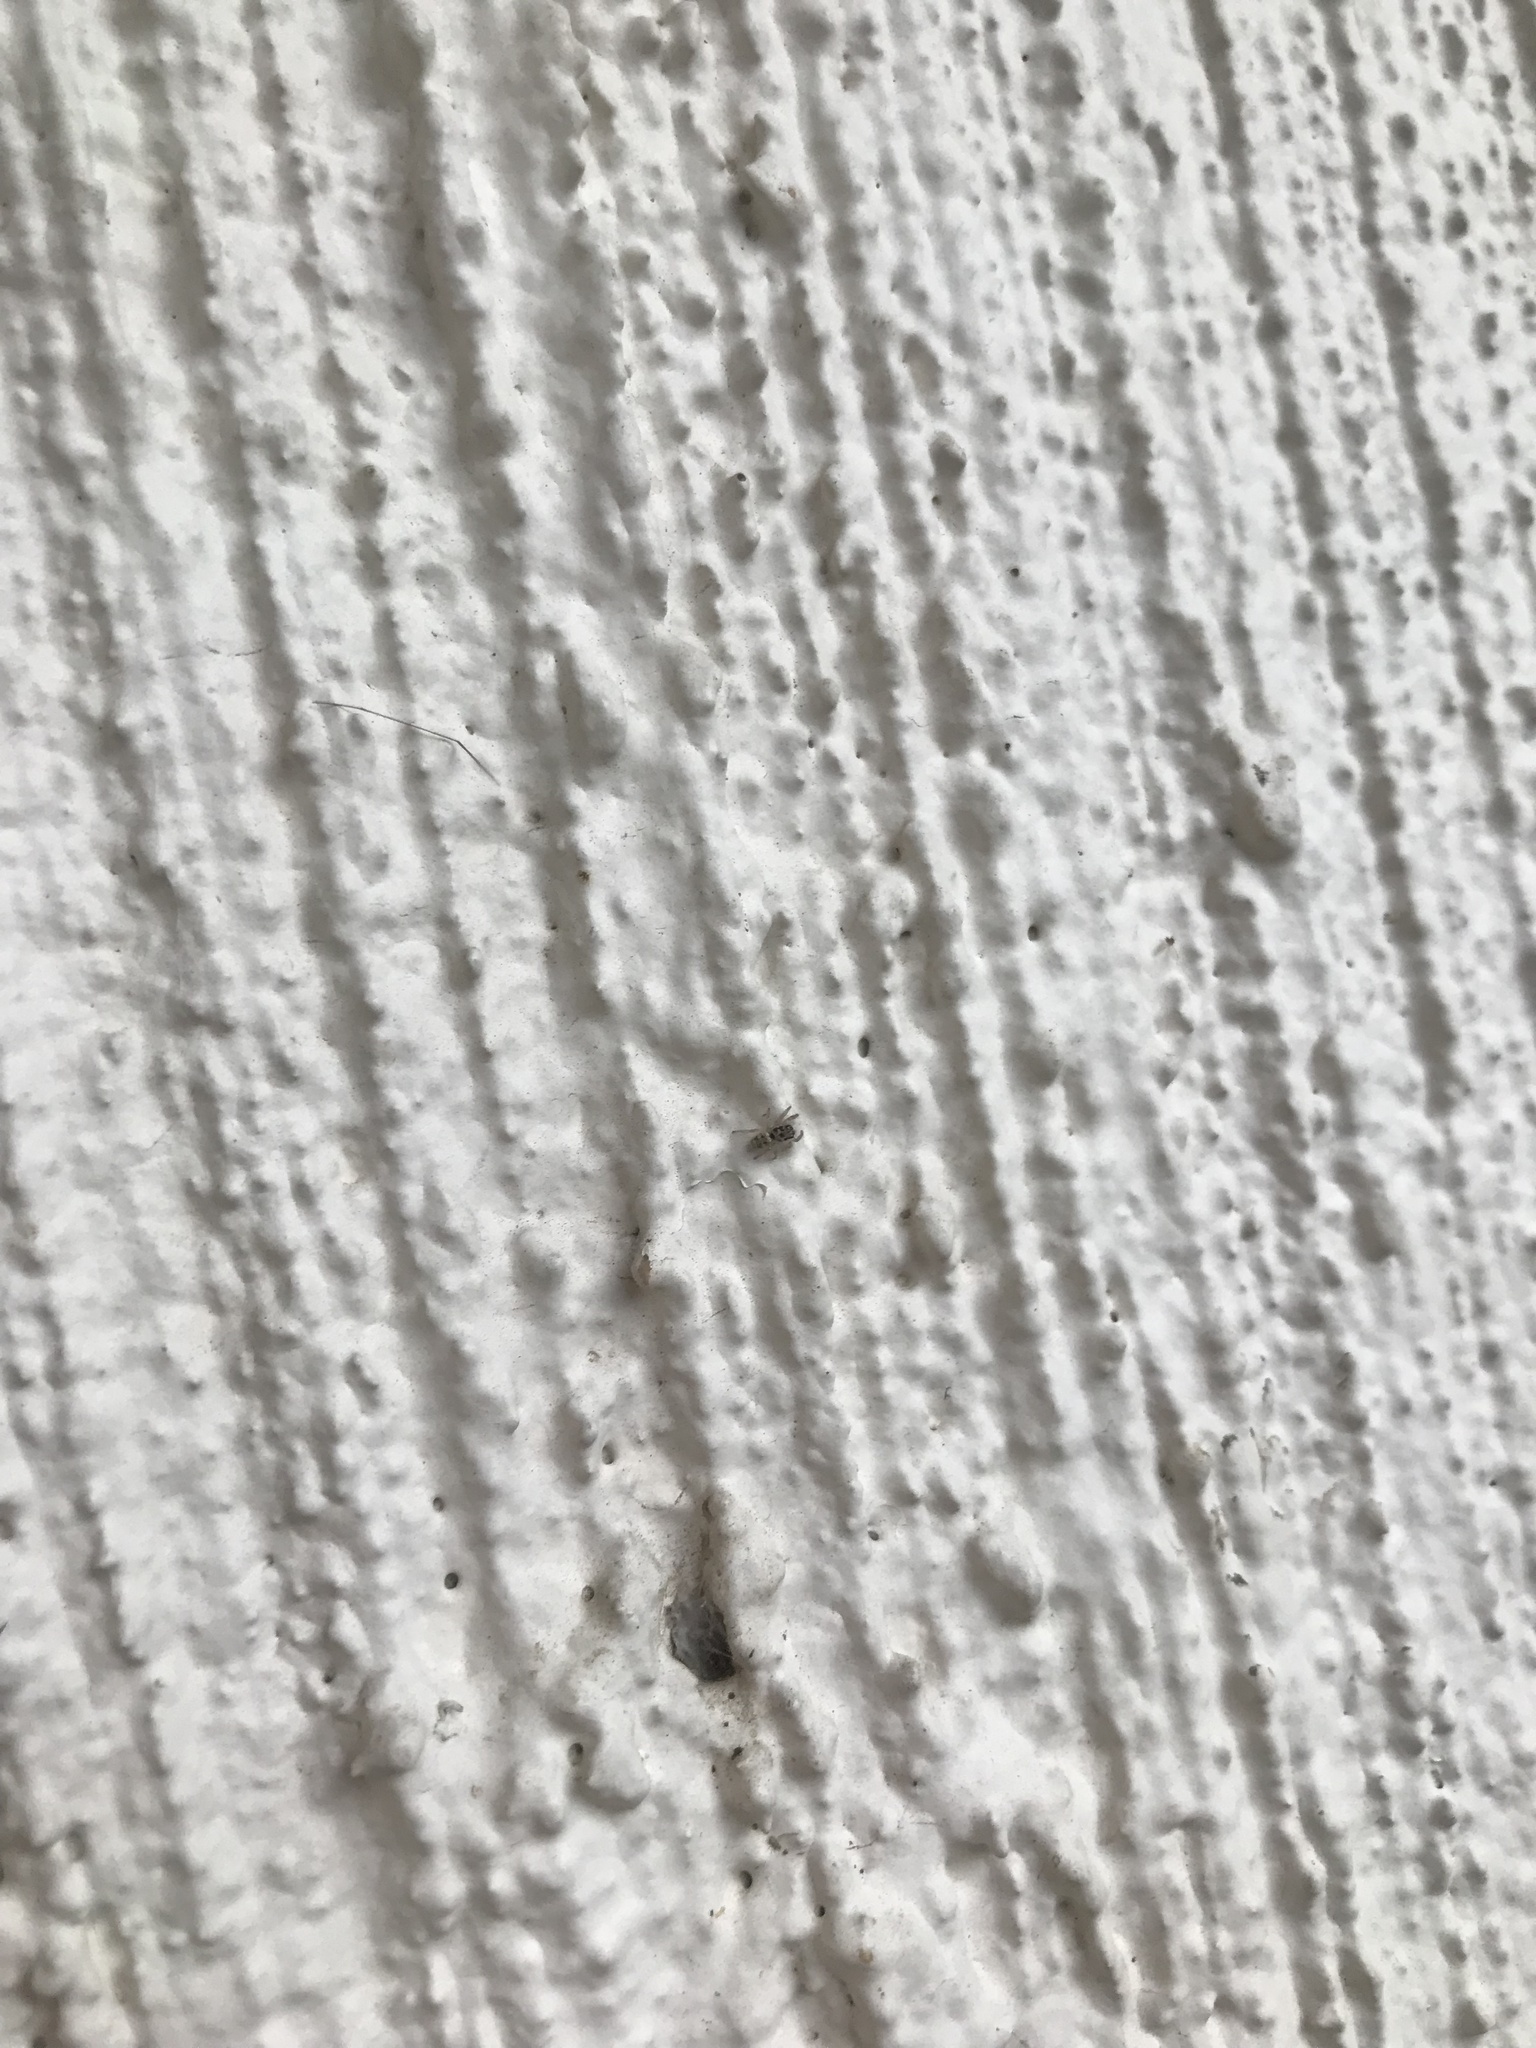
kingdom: Animalia
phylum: Arthropoda
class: Arachnida
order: Araneae
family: Salticidae
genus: Salticus
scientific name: Salticus scenicus
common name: Zebra jumper
